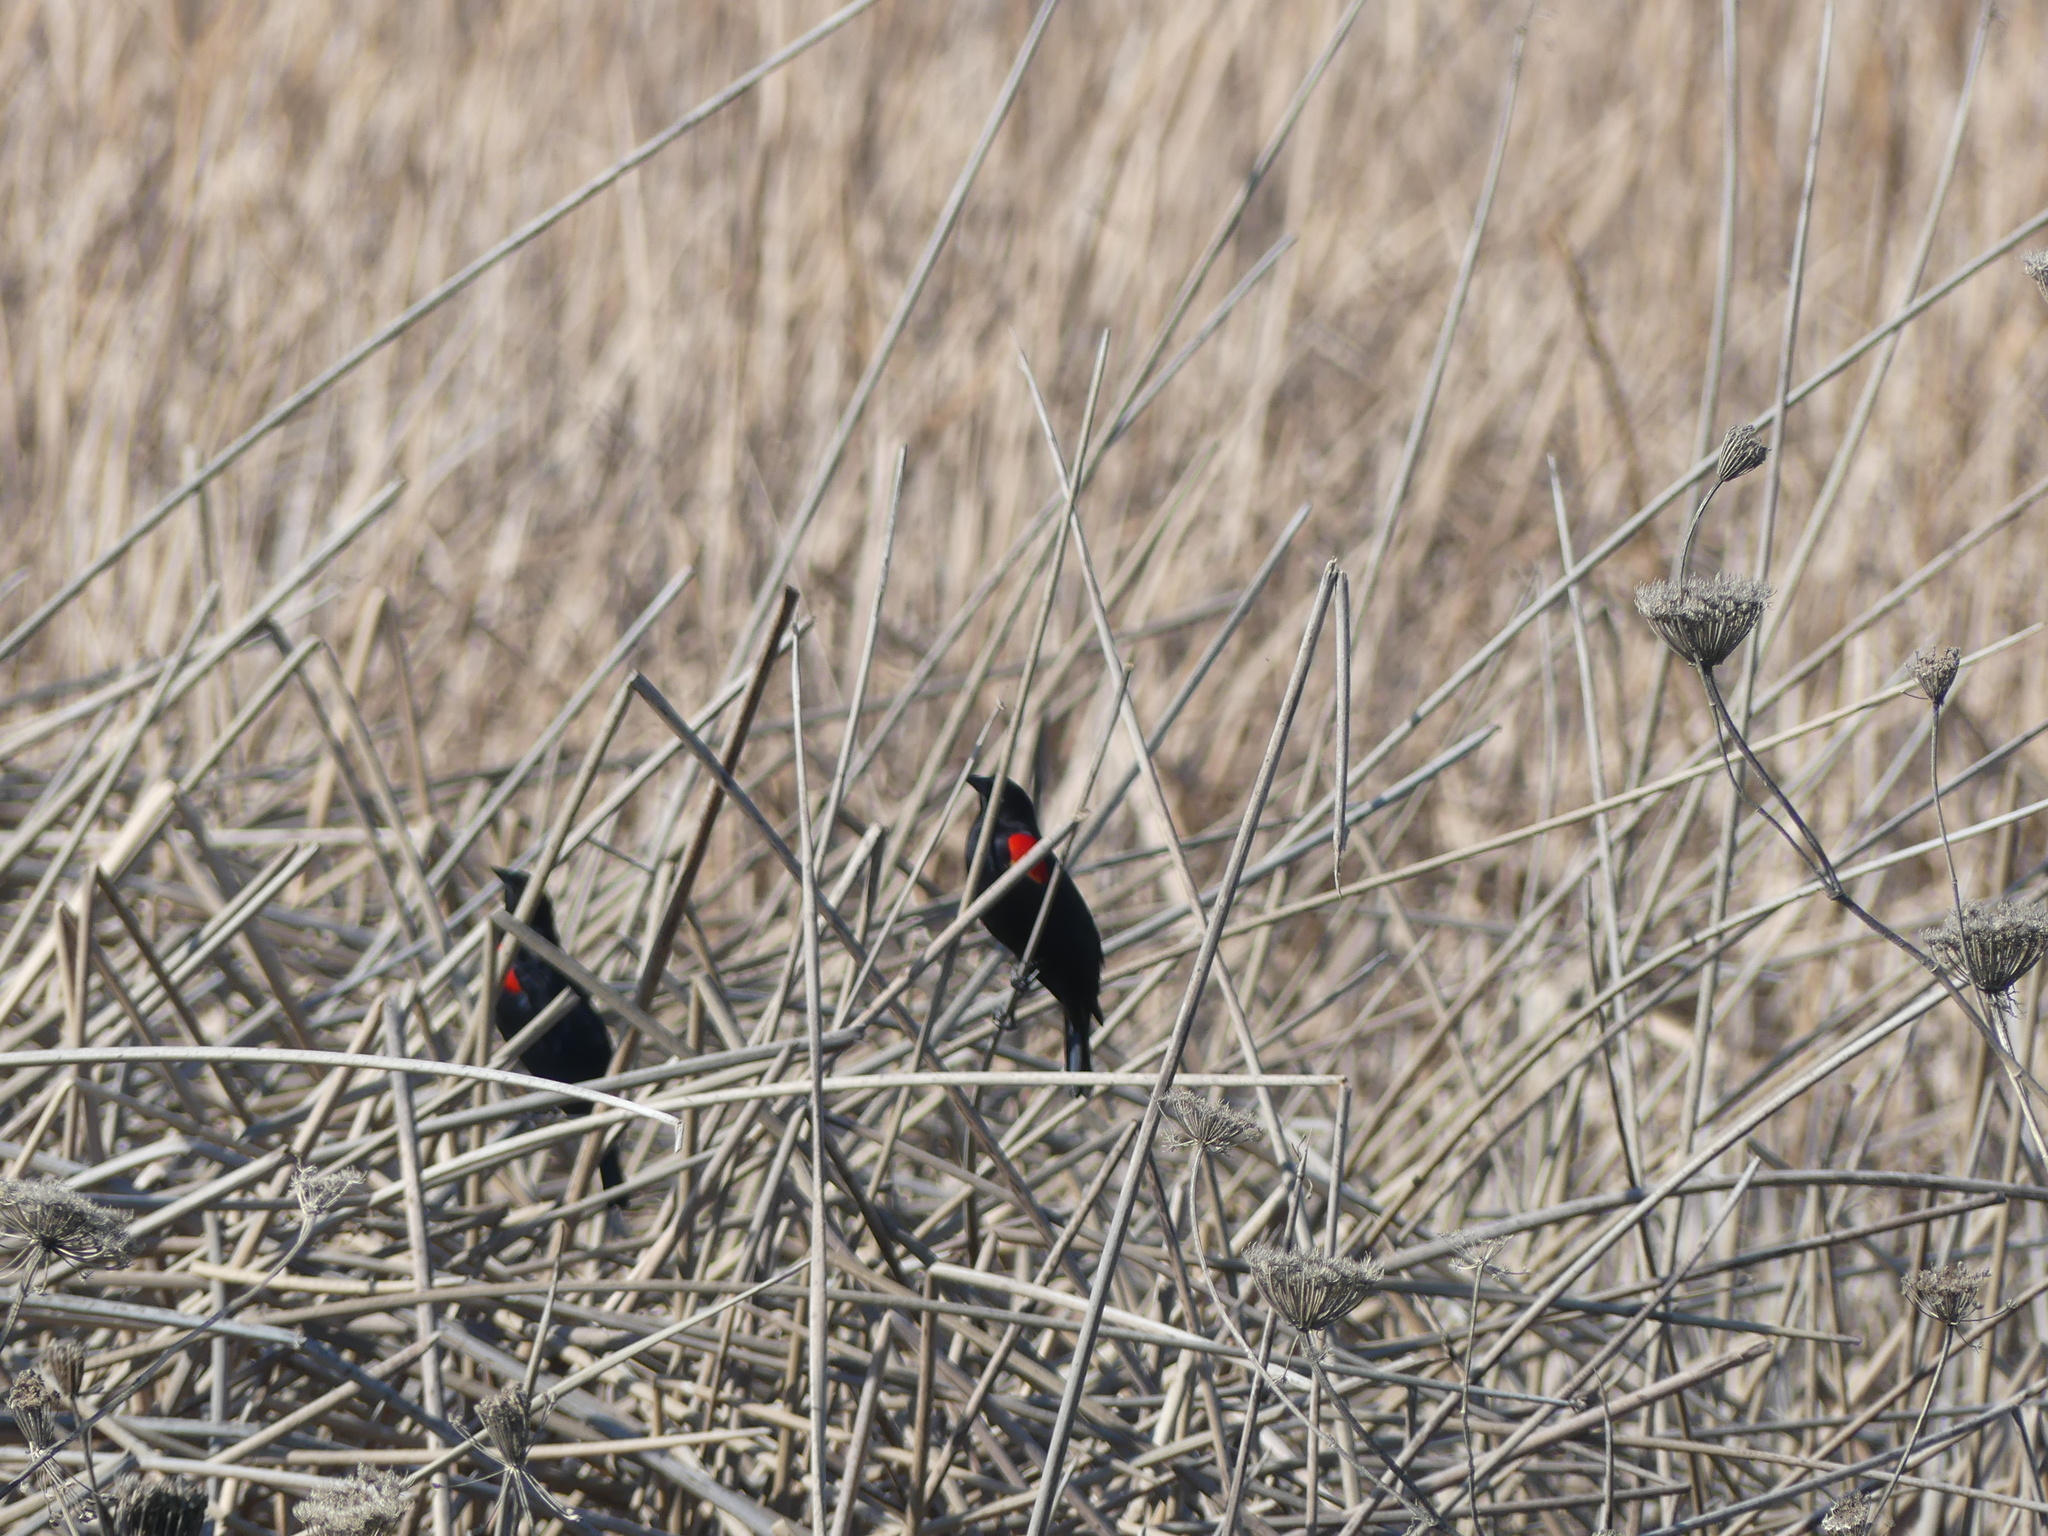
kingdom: Animalia
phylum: Chordata
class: Aves
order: Passeriformes
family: Icteridae
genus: Agelaius
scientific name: Agelaius phoeniceus
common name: Red-winged blackbird
